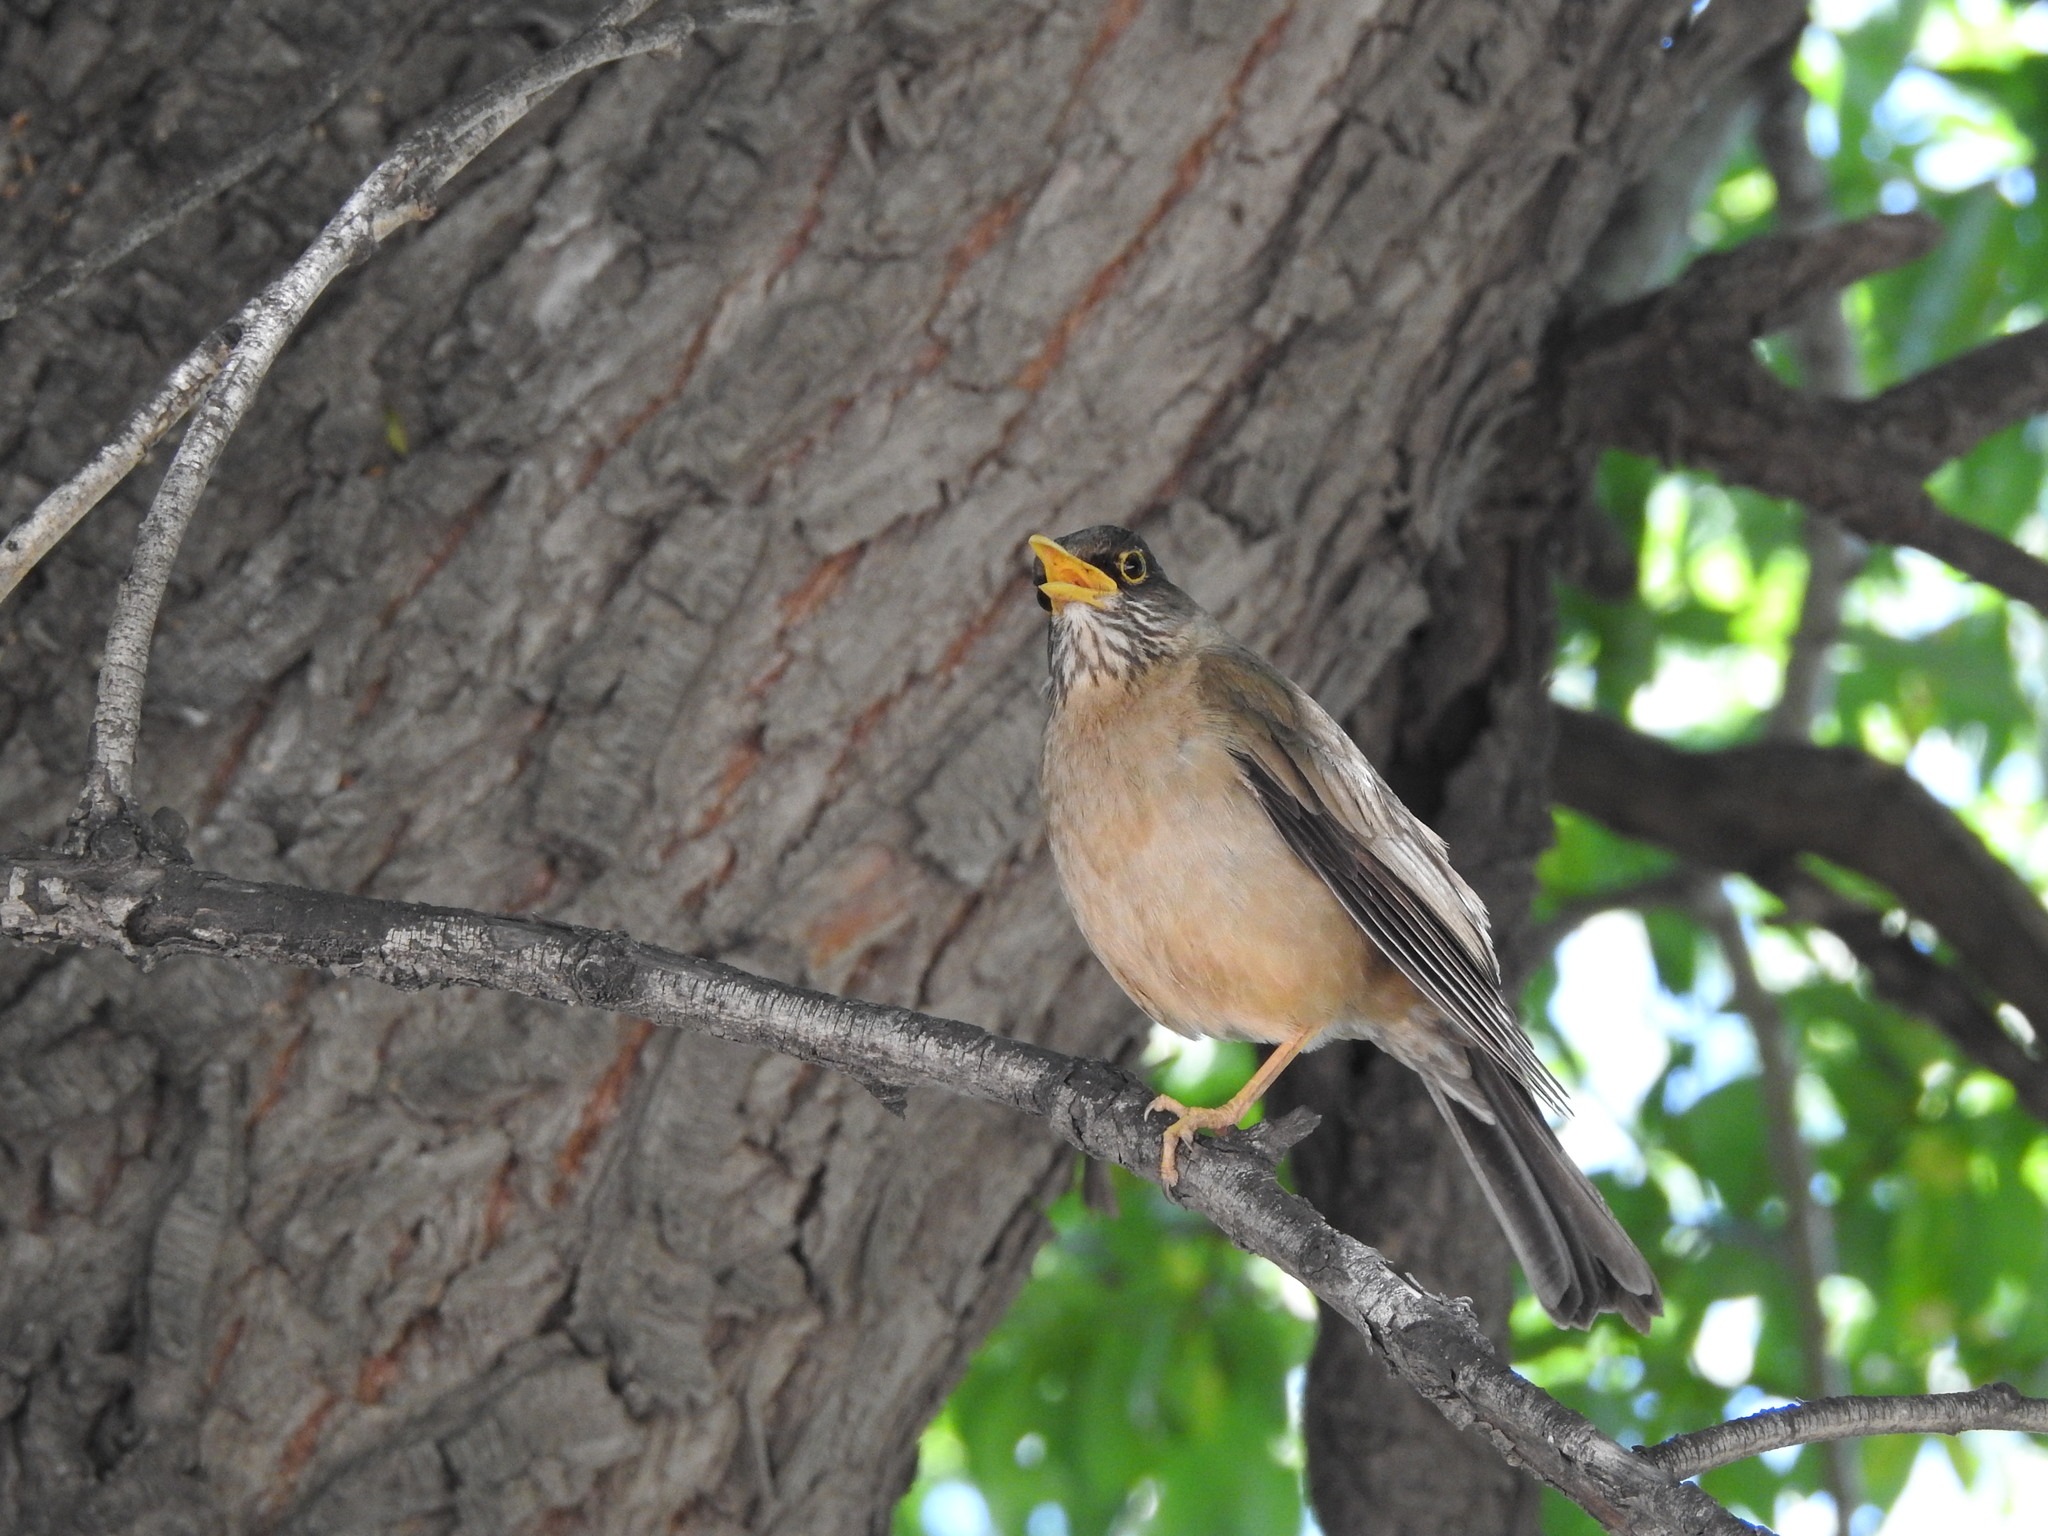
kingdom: Animalia
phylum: Chordata
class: Aves
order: Passeriformes
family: Turdidae
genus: Turdus
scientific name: Turdus falcklandii
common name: Austral thrush
